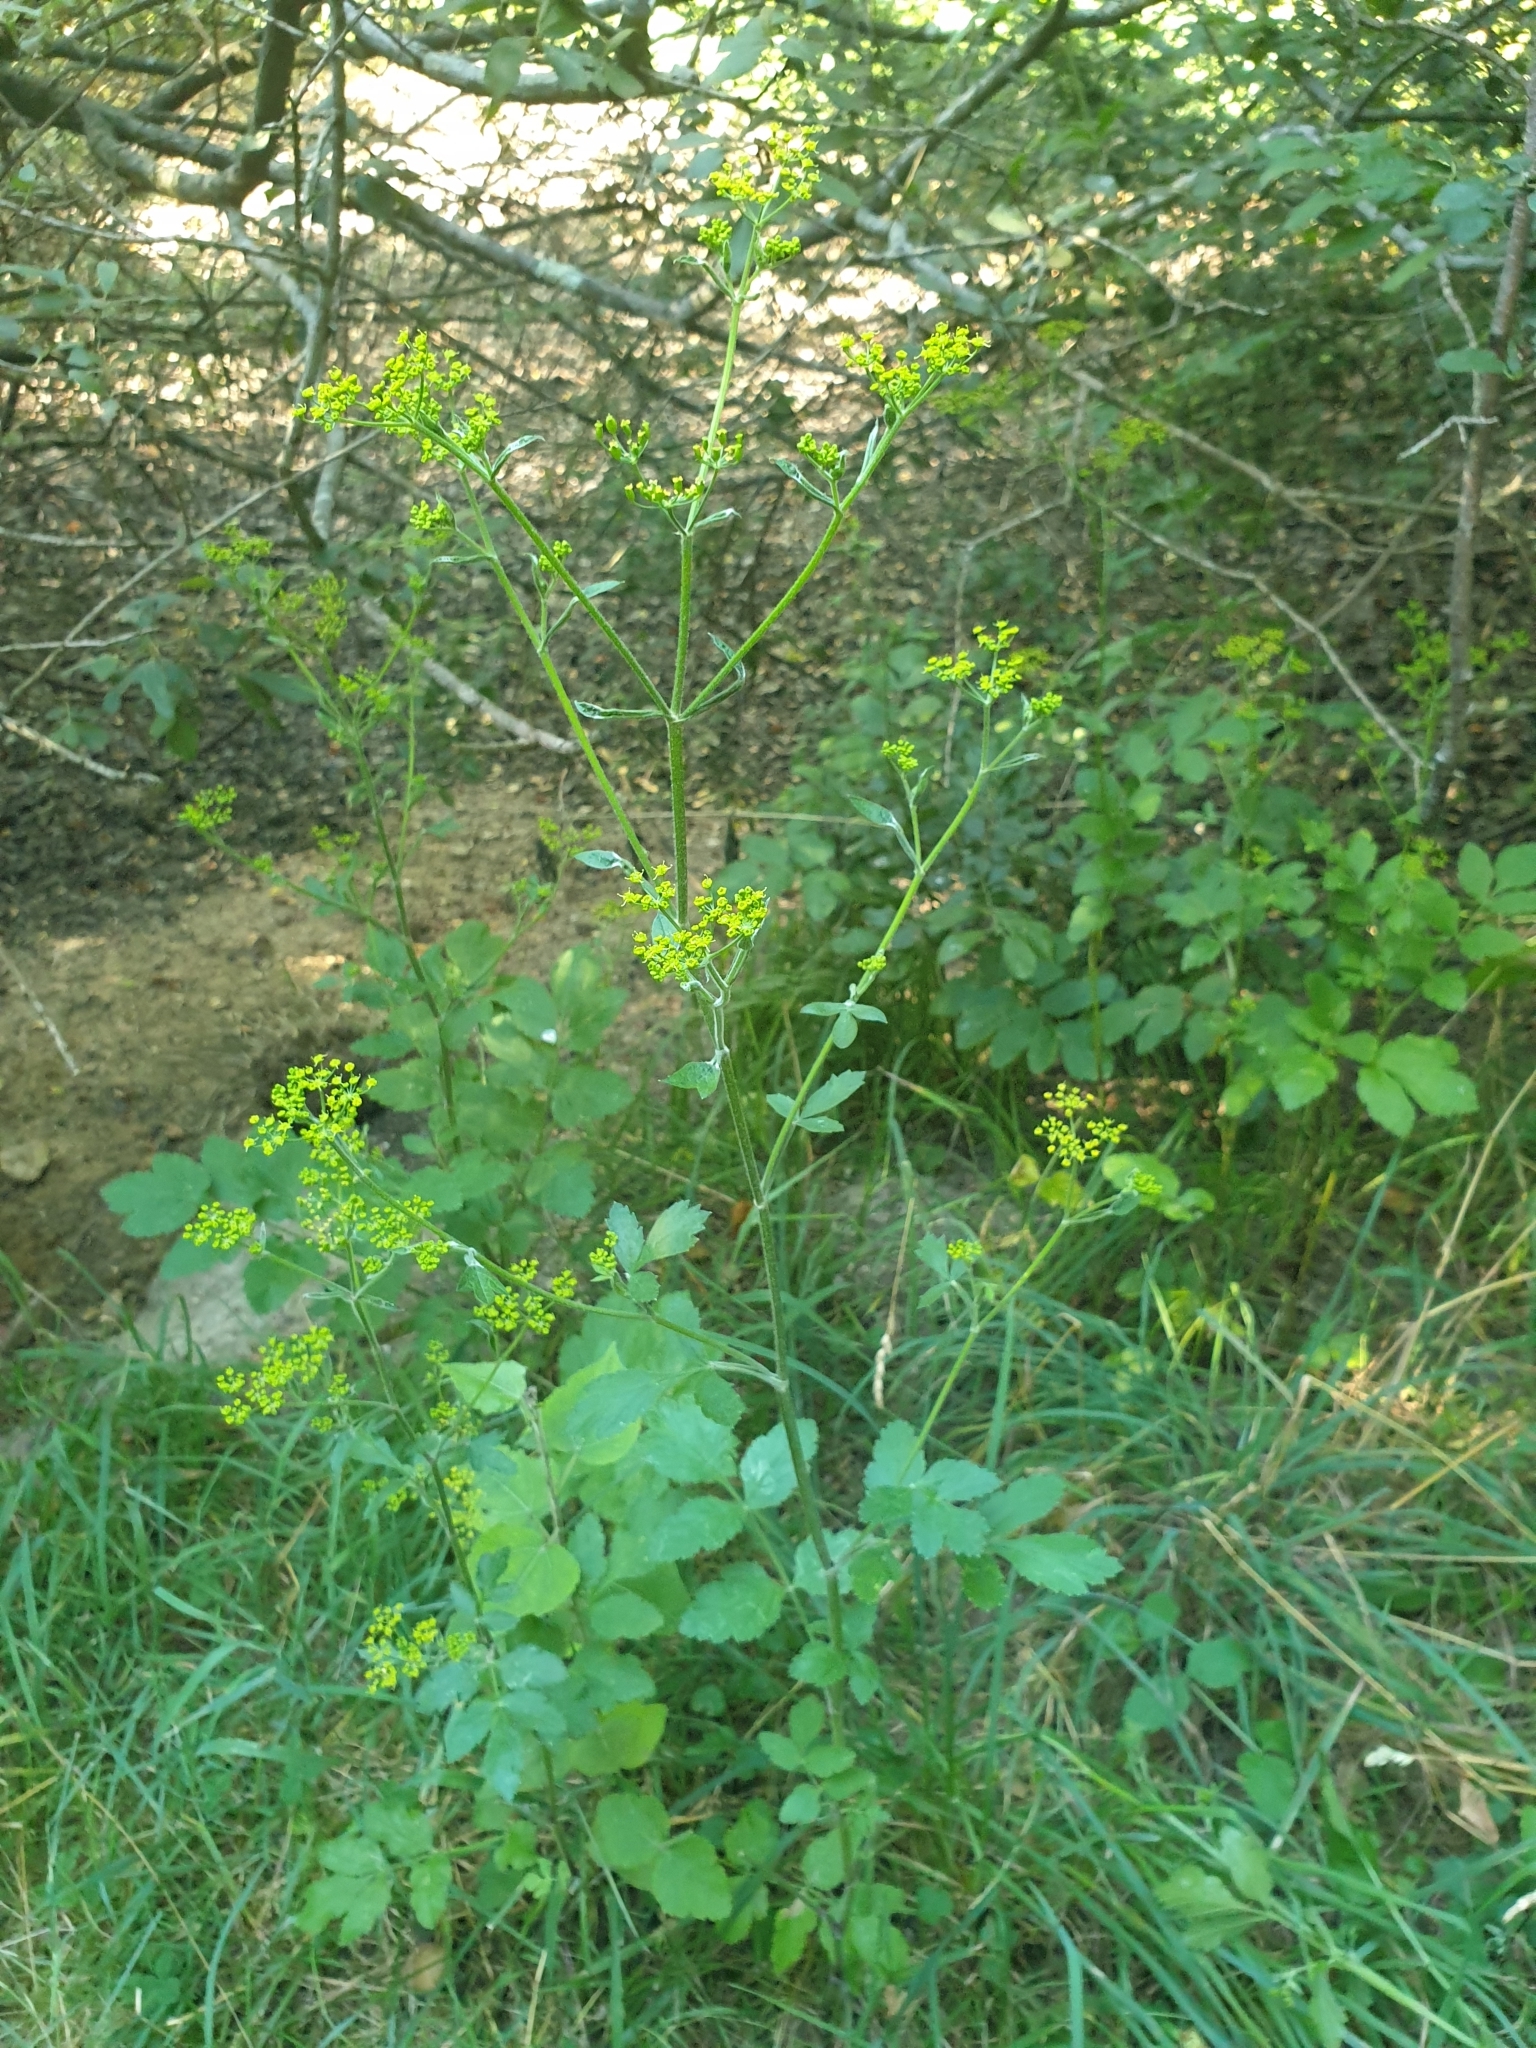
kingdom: Plantae
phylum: Tracheophyta
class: Magnoliopsida
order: Apiales
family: Apiaceae
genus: Pastinaca
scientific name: Pastinaca sativa
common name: Wild parsnip
